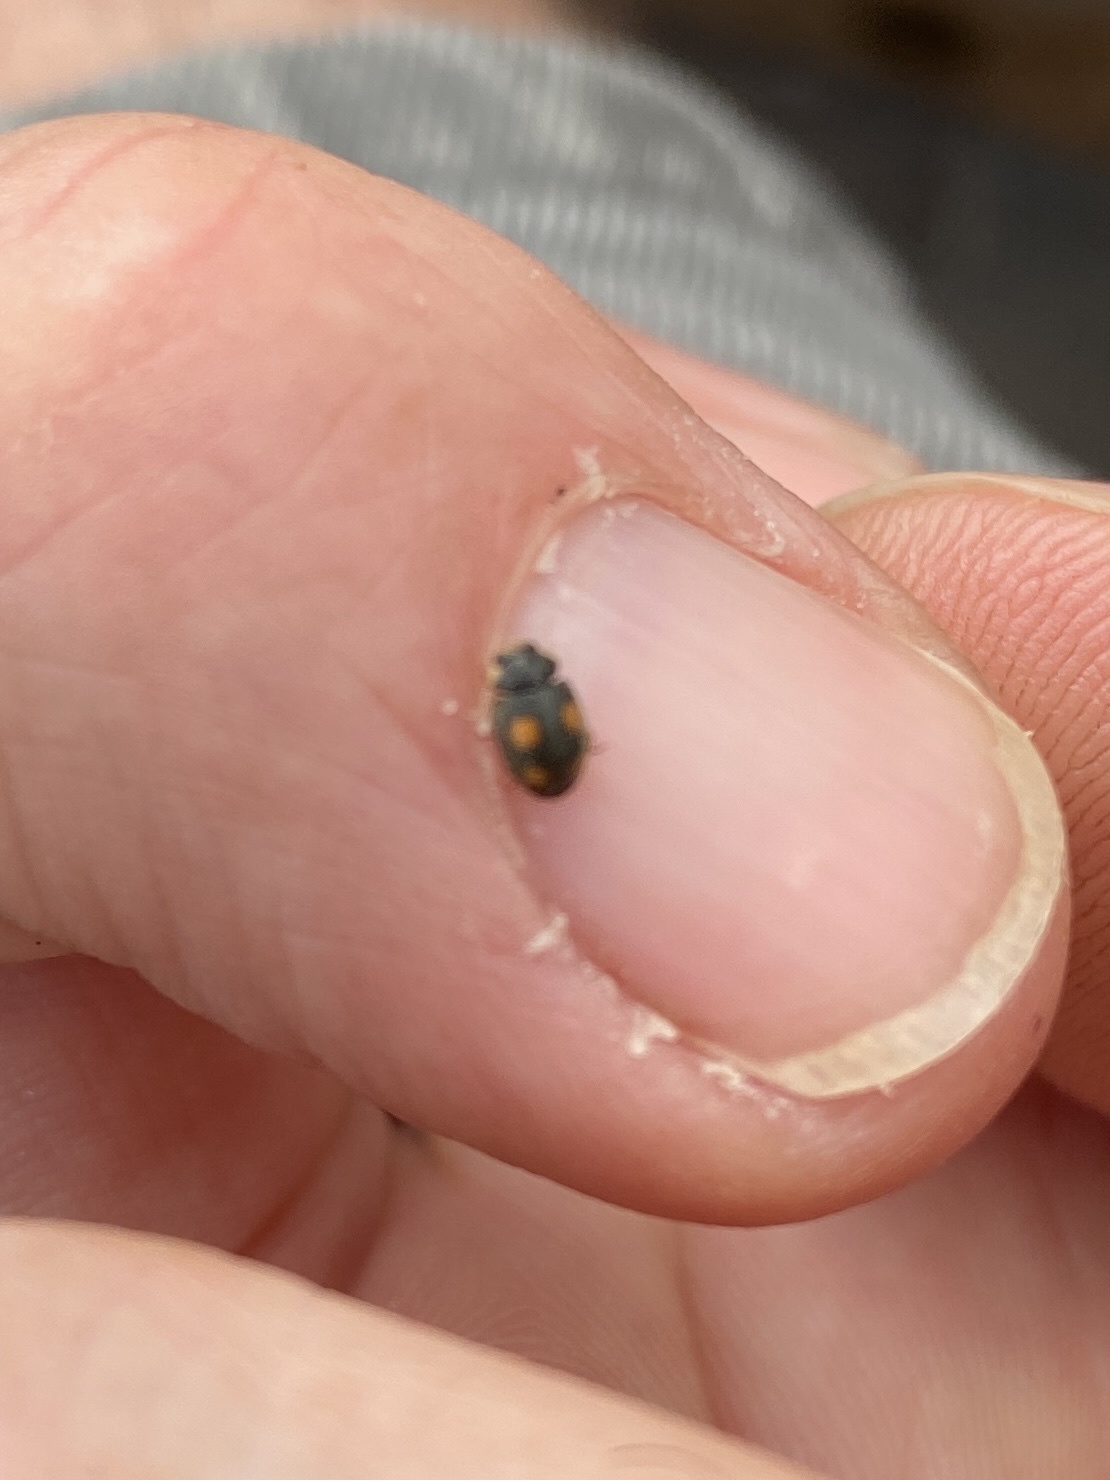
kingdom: Animalia
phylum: Arthropoda
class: Insecta
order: Coleoptera
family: Coccinellidae
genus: Platynaspis
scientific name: Platynaspis luteorubra
